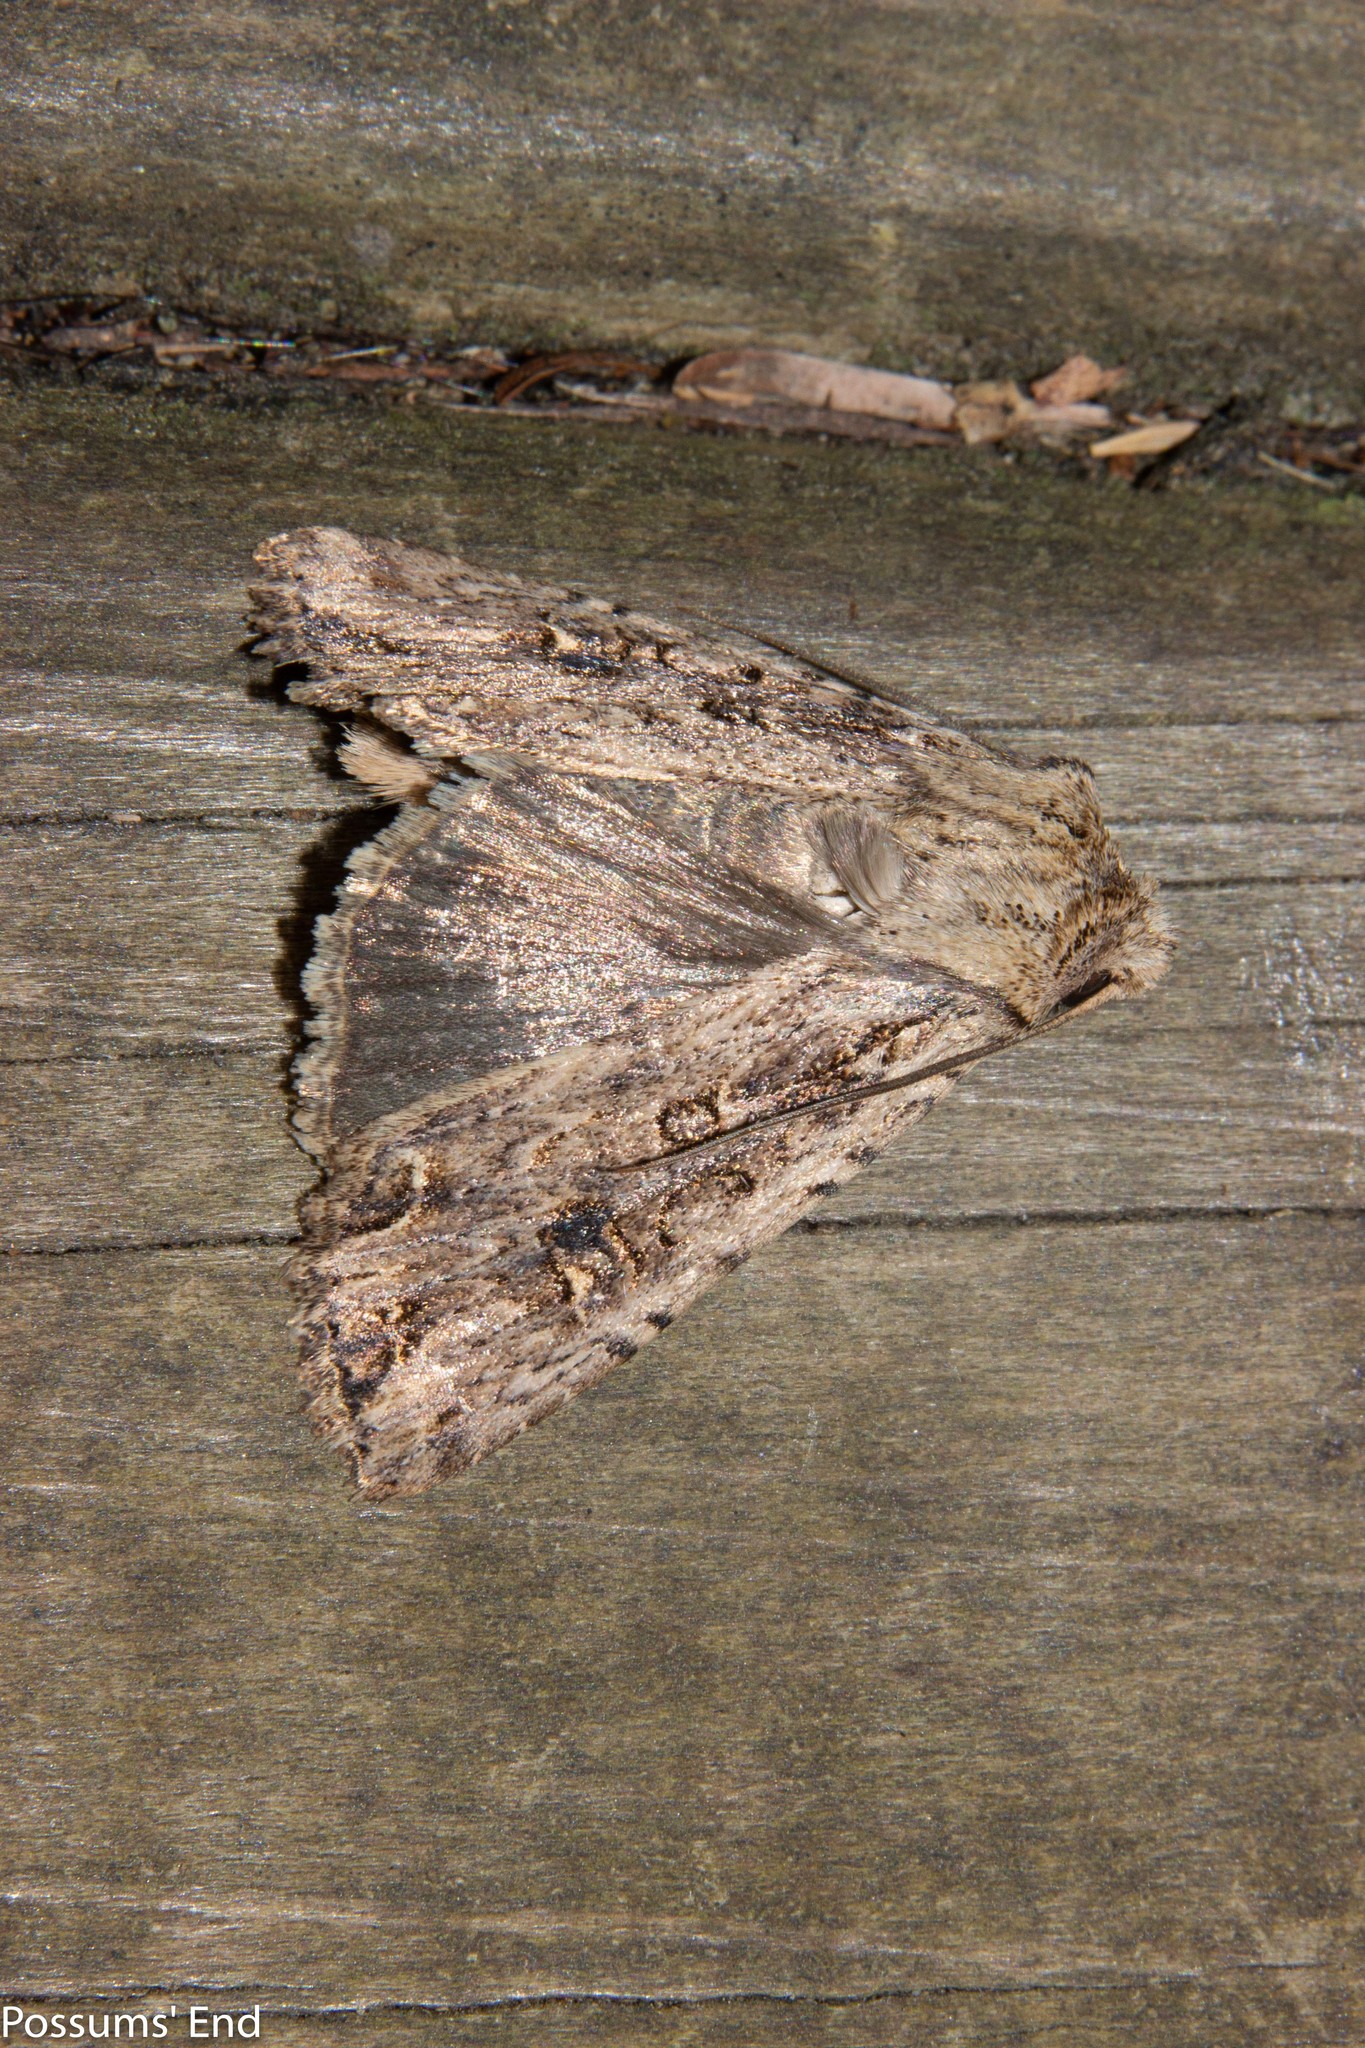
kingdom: Animalia
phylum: Arthropoda
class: Insecta
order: Lepidoptera
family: Noctuidae
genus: Ichneutica
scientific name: Ichneutica lignana
